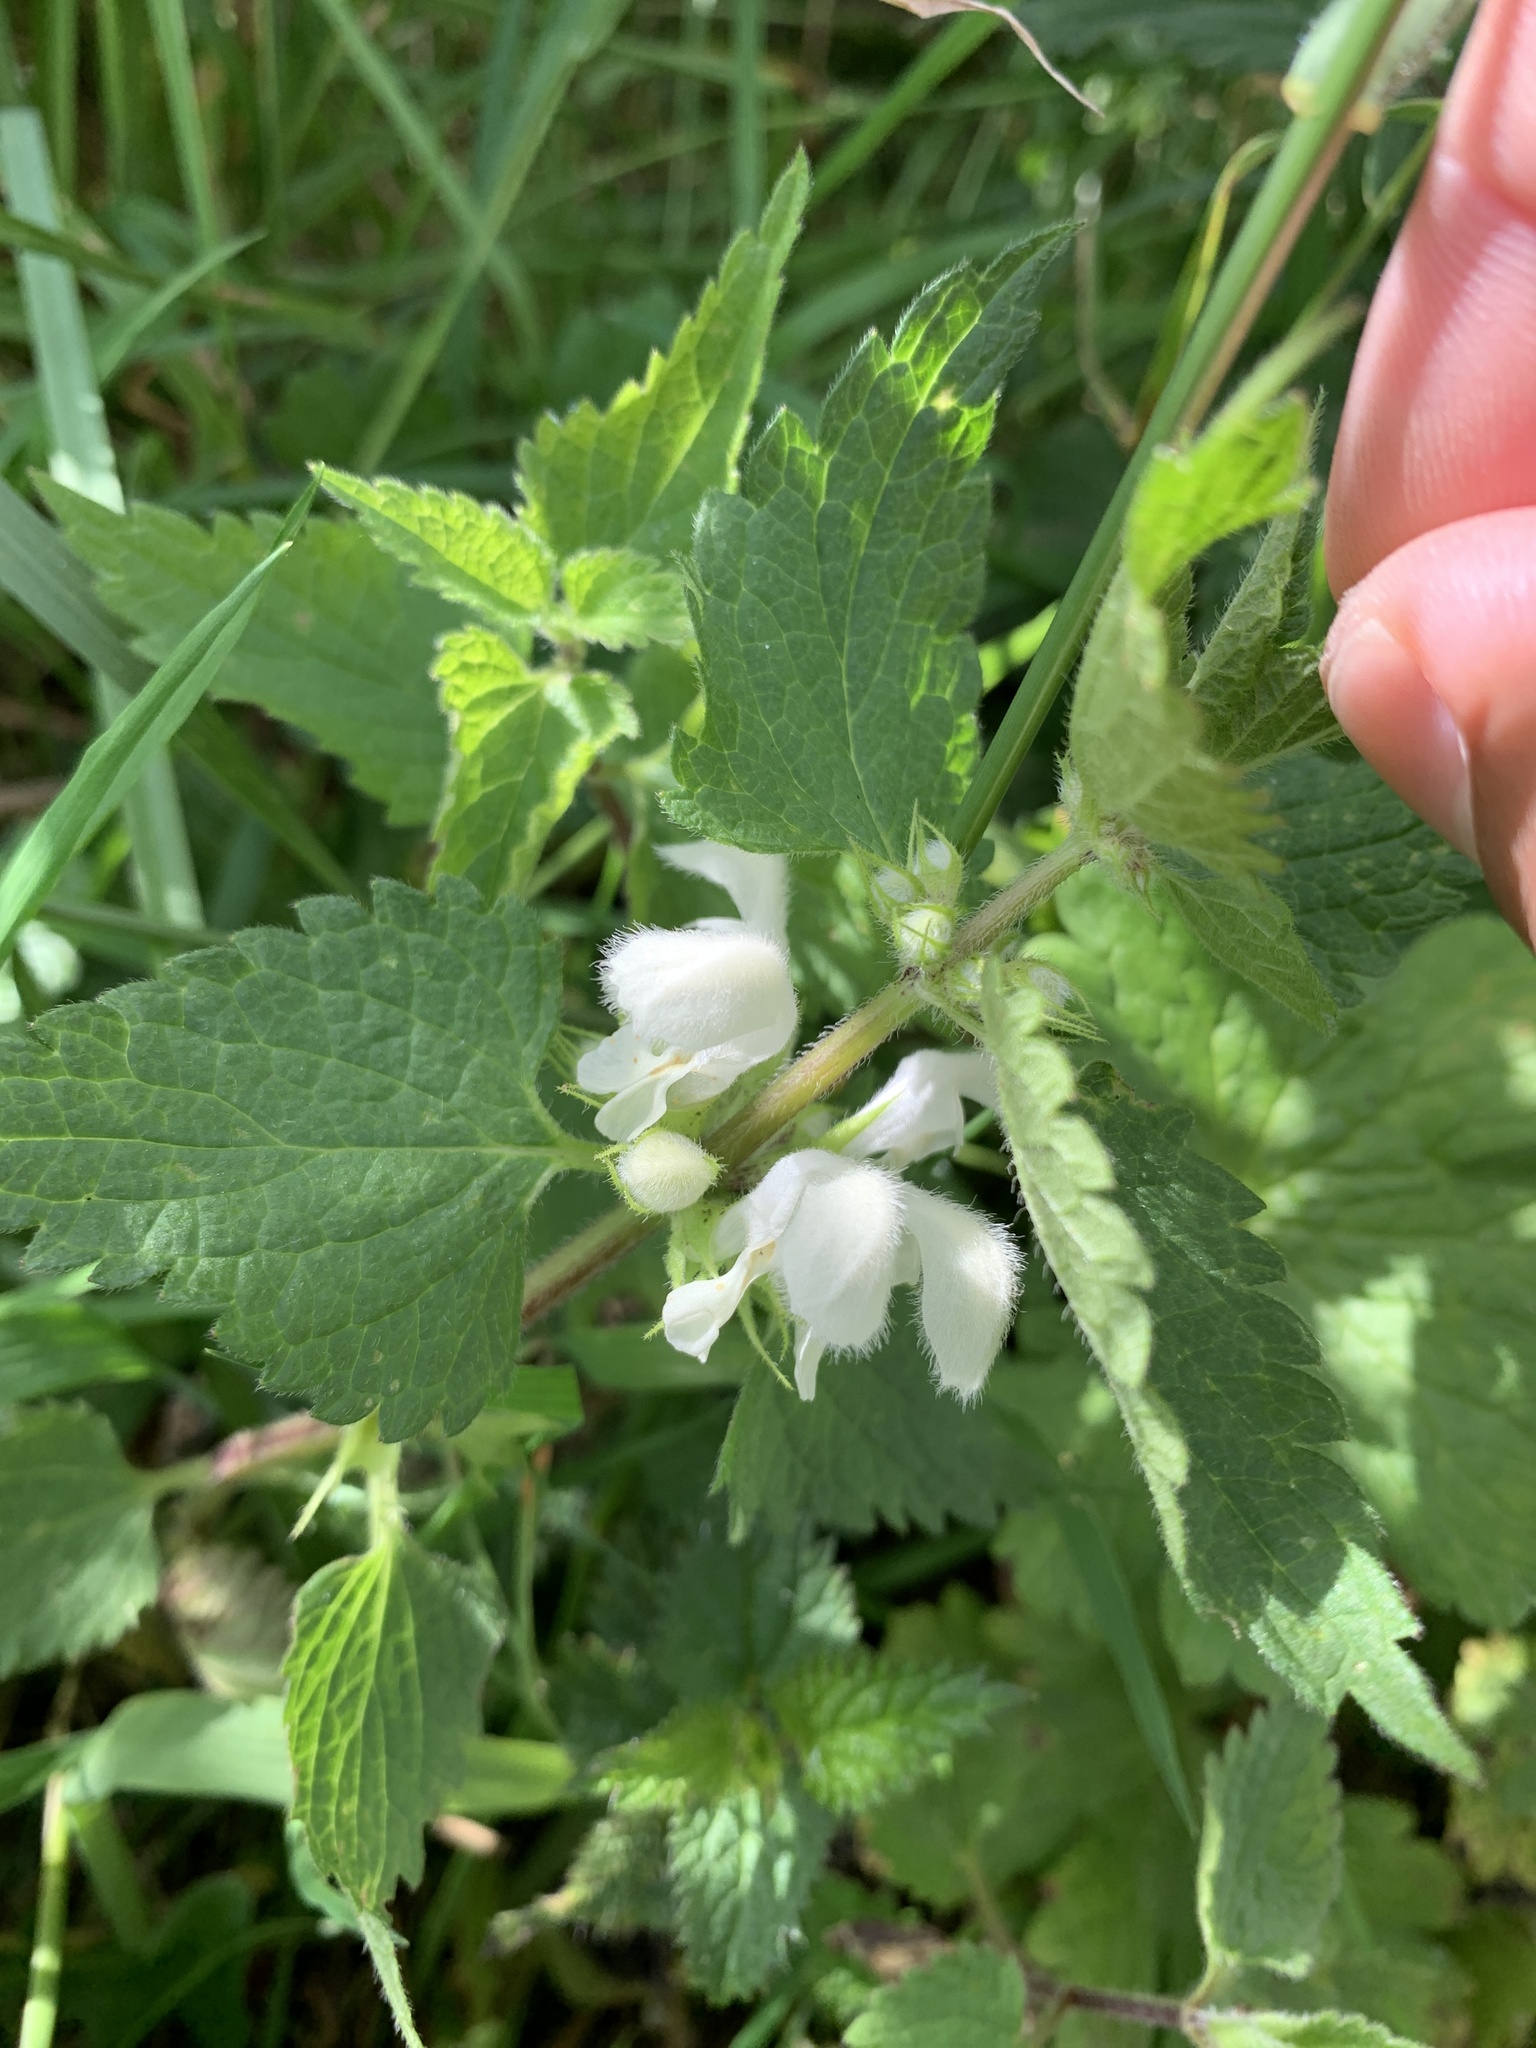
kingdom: Plantae
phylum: Tracheophyta
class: Magnoliopsida
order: Lamiales
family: Lamiaceae
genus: Lamium
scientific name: Lamium album
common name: White dead-nettle
